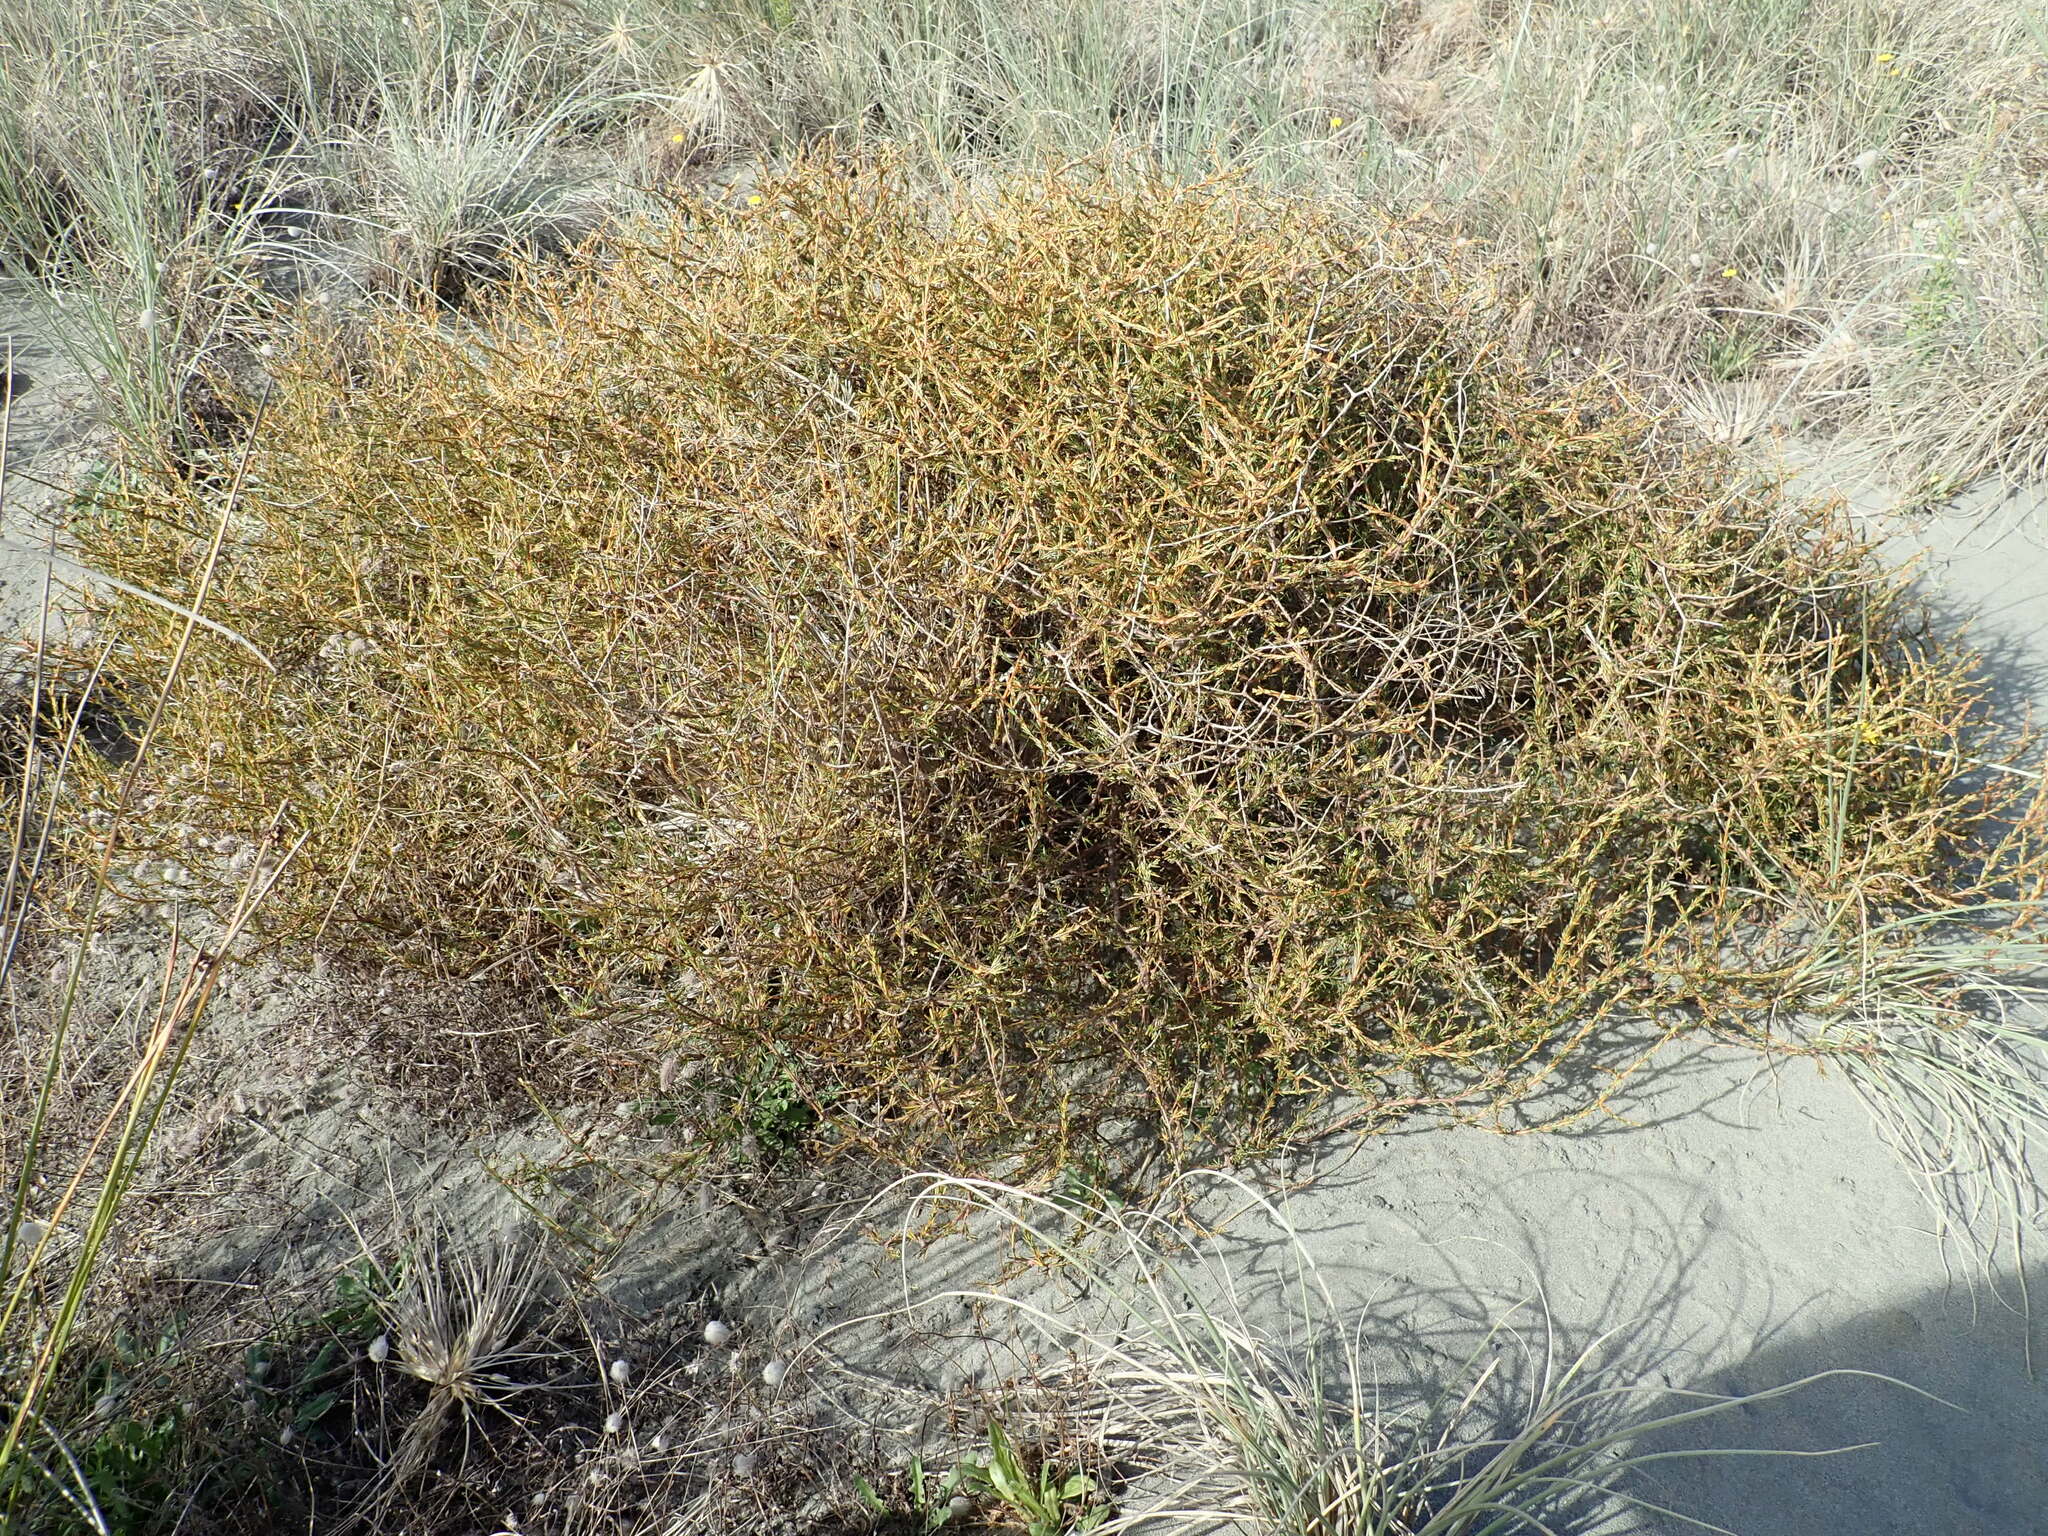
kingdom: Plantae
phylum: Tracheophyta
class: Magnoliopsida
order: Gentianales
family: Rubiaceae
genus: Coprosma
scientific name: Coprosma acerosa
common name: Sand coprosma
